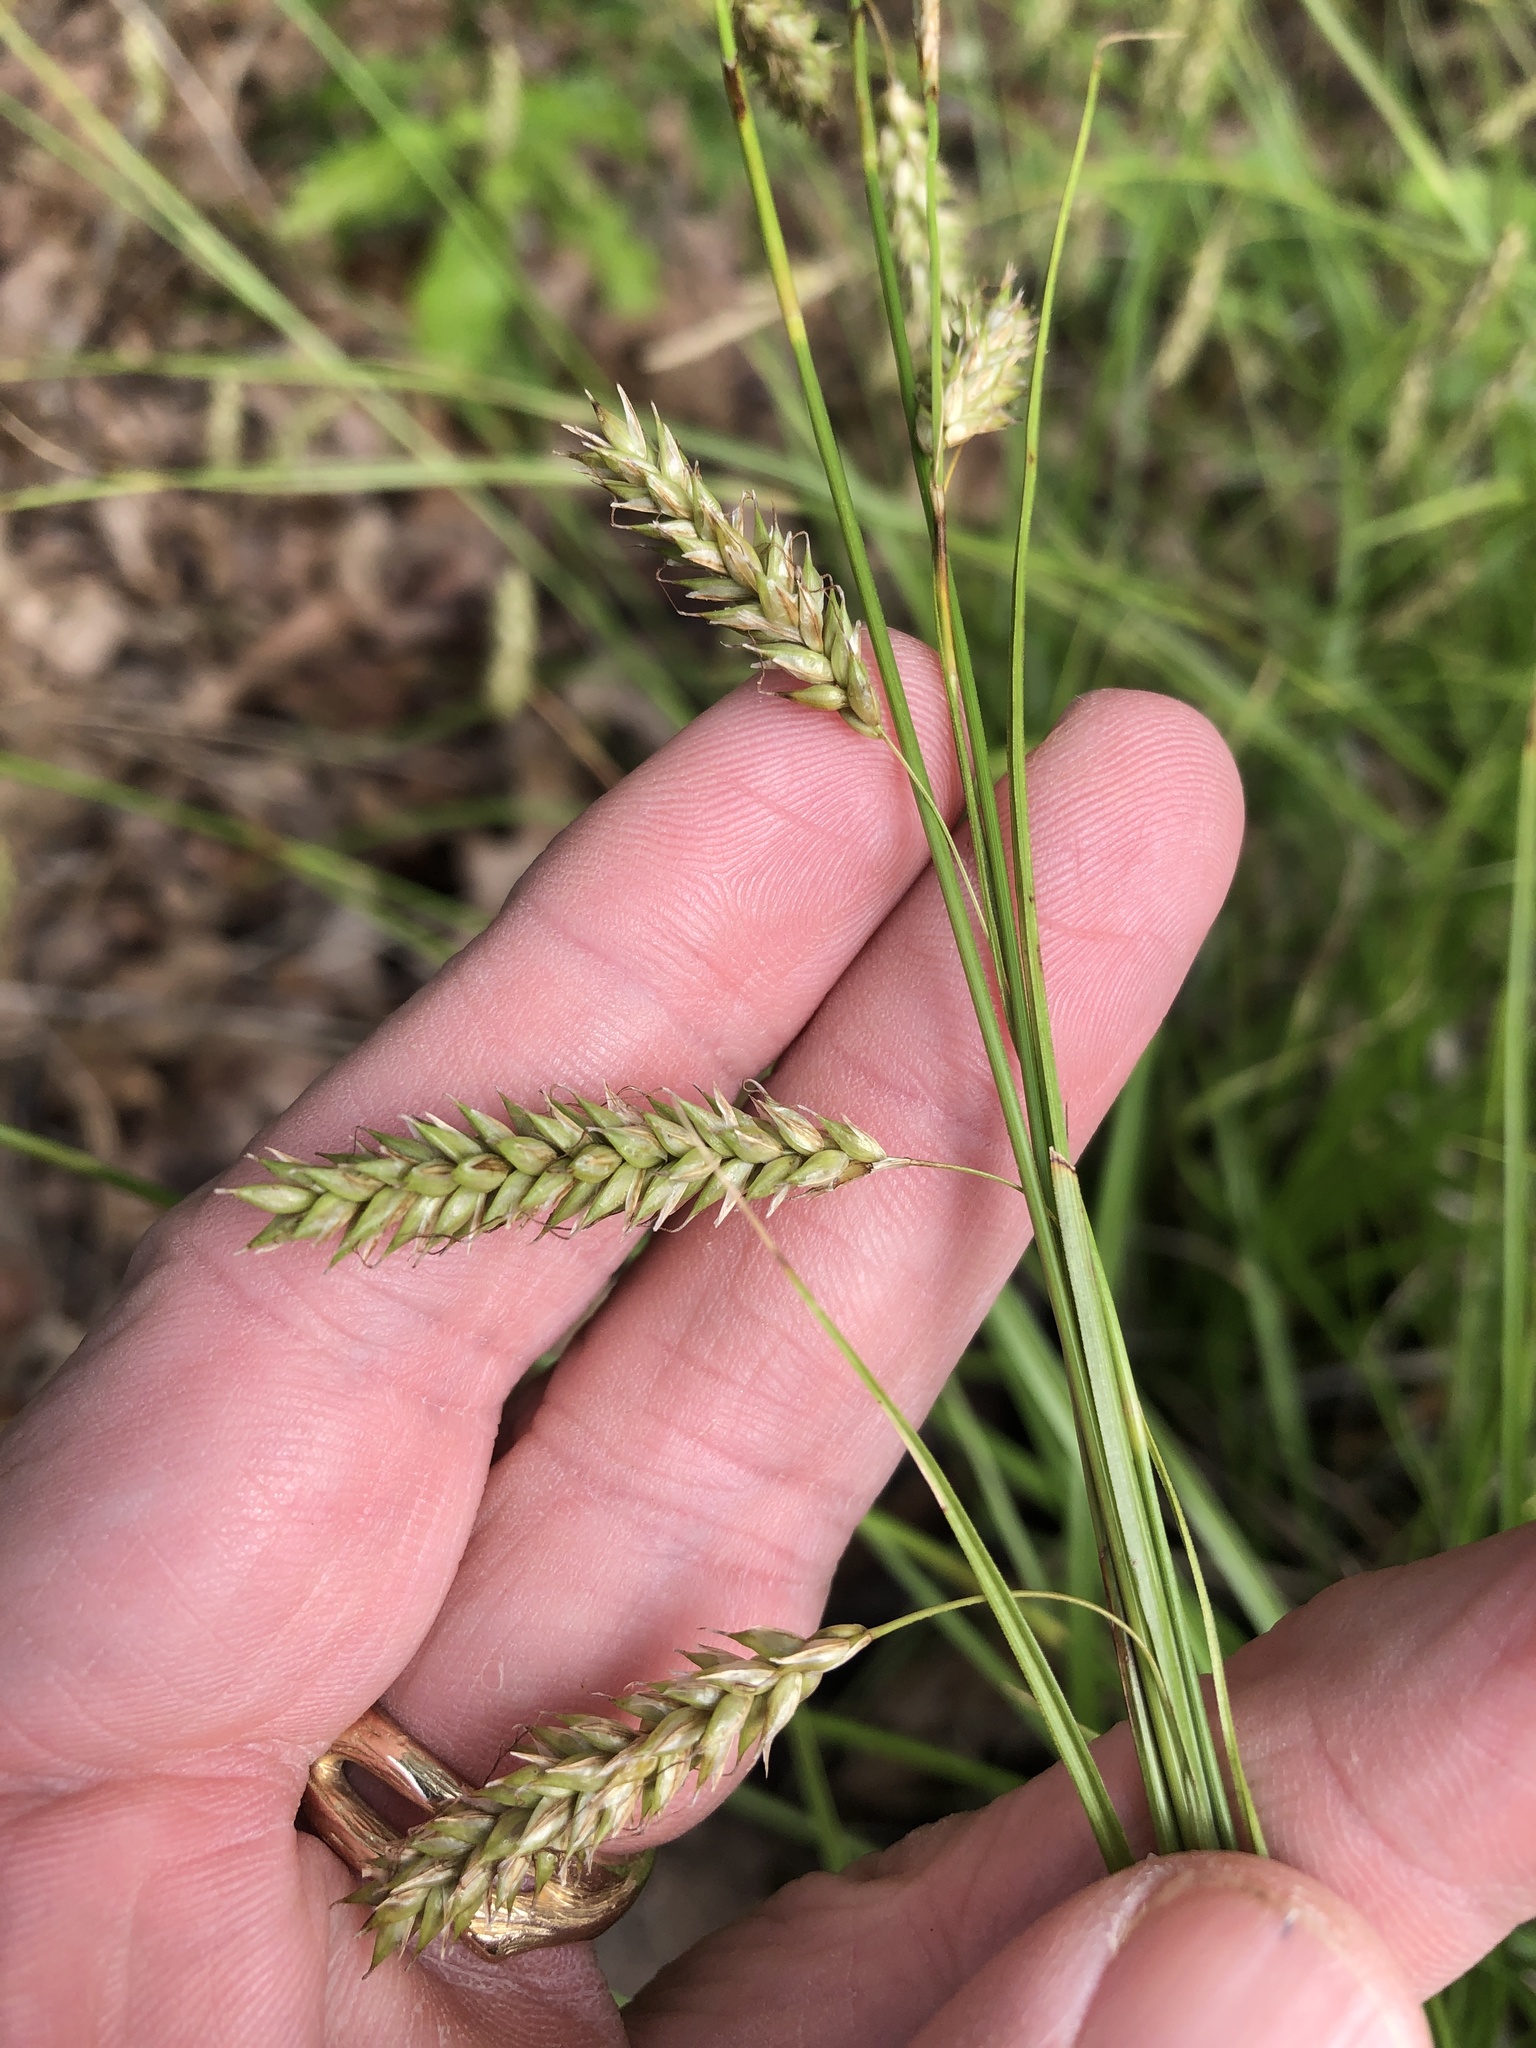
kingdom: Plantae
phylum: Tracheophyta
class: Liliopsida
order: Poales
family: Cyperaceae
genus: Carex
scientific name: Carex cherokeensis
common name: Cherokee sedge
